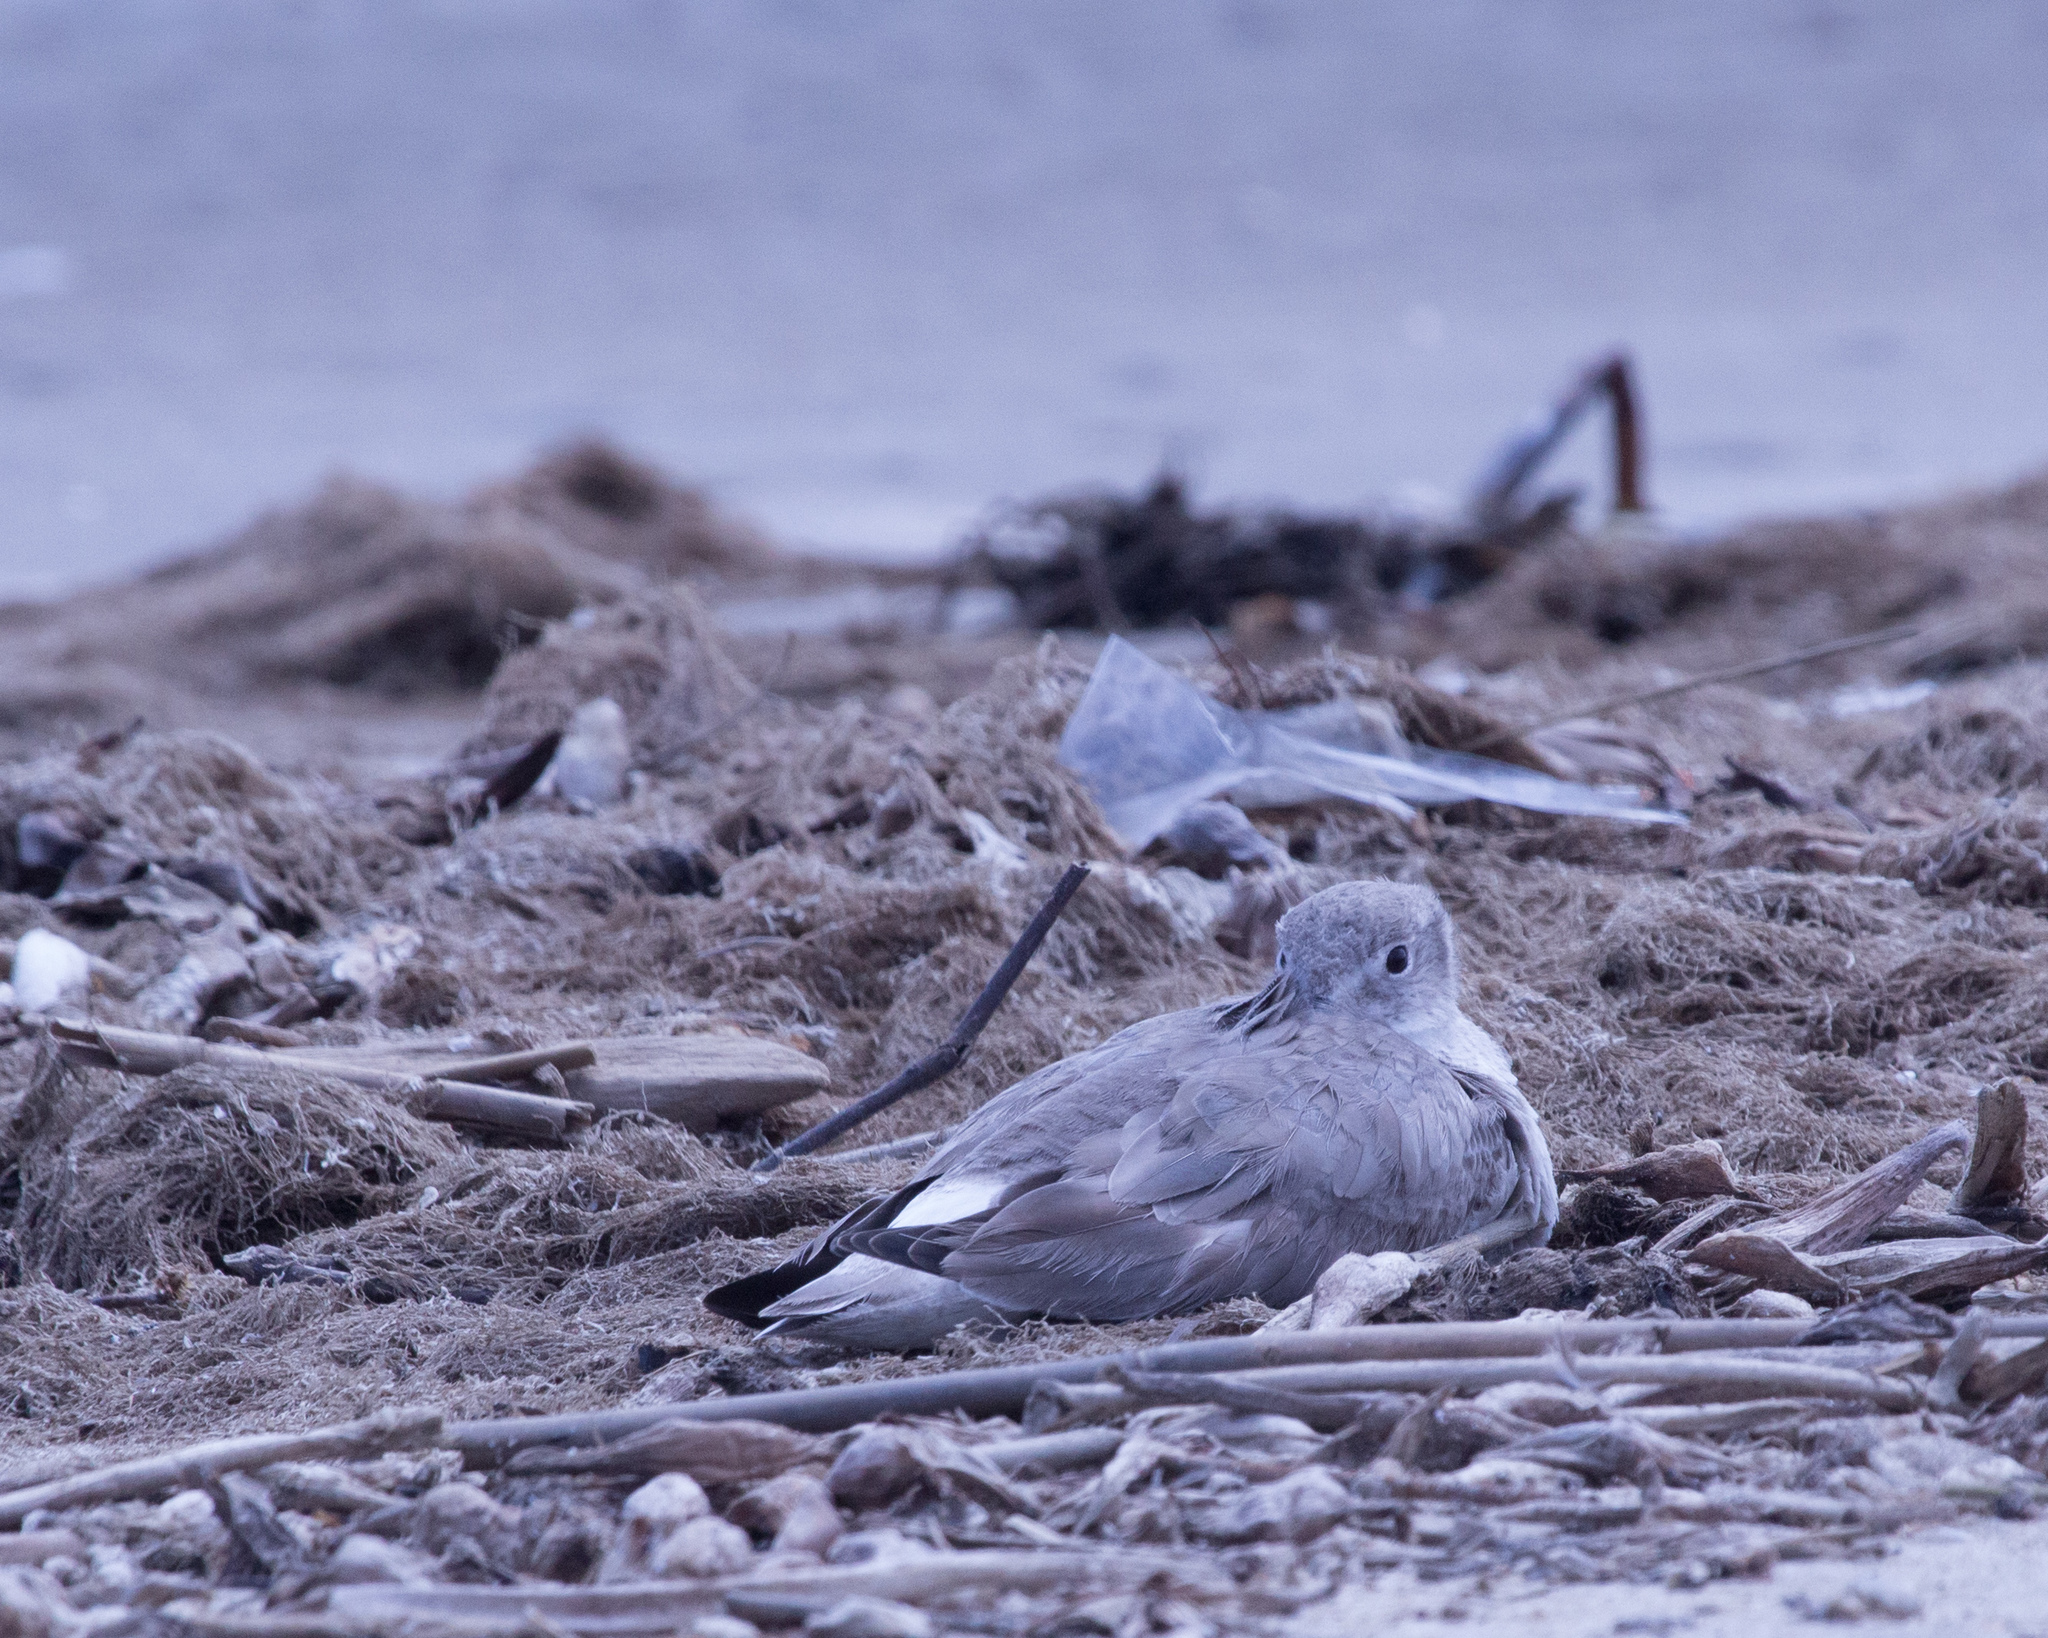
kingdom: Animalia
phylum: Chordata
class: Aves
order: Charadriiformes
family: Scolopacidae
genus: Tringa
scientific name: Tringa semipalmata
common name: Willet
